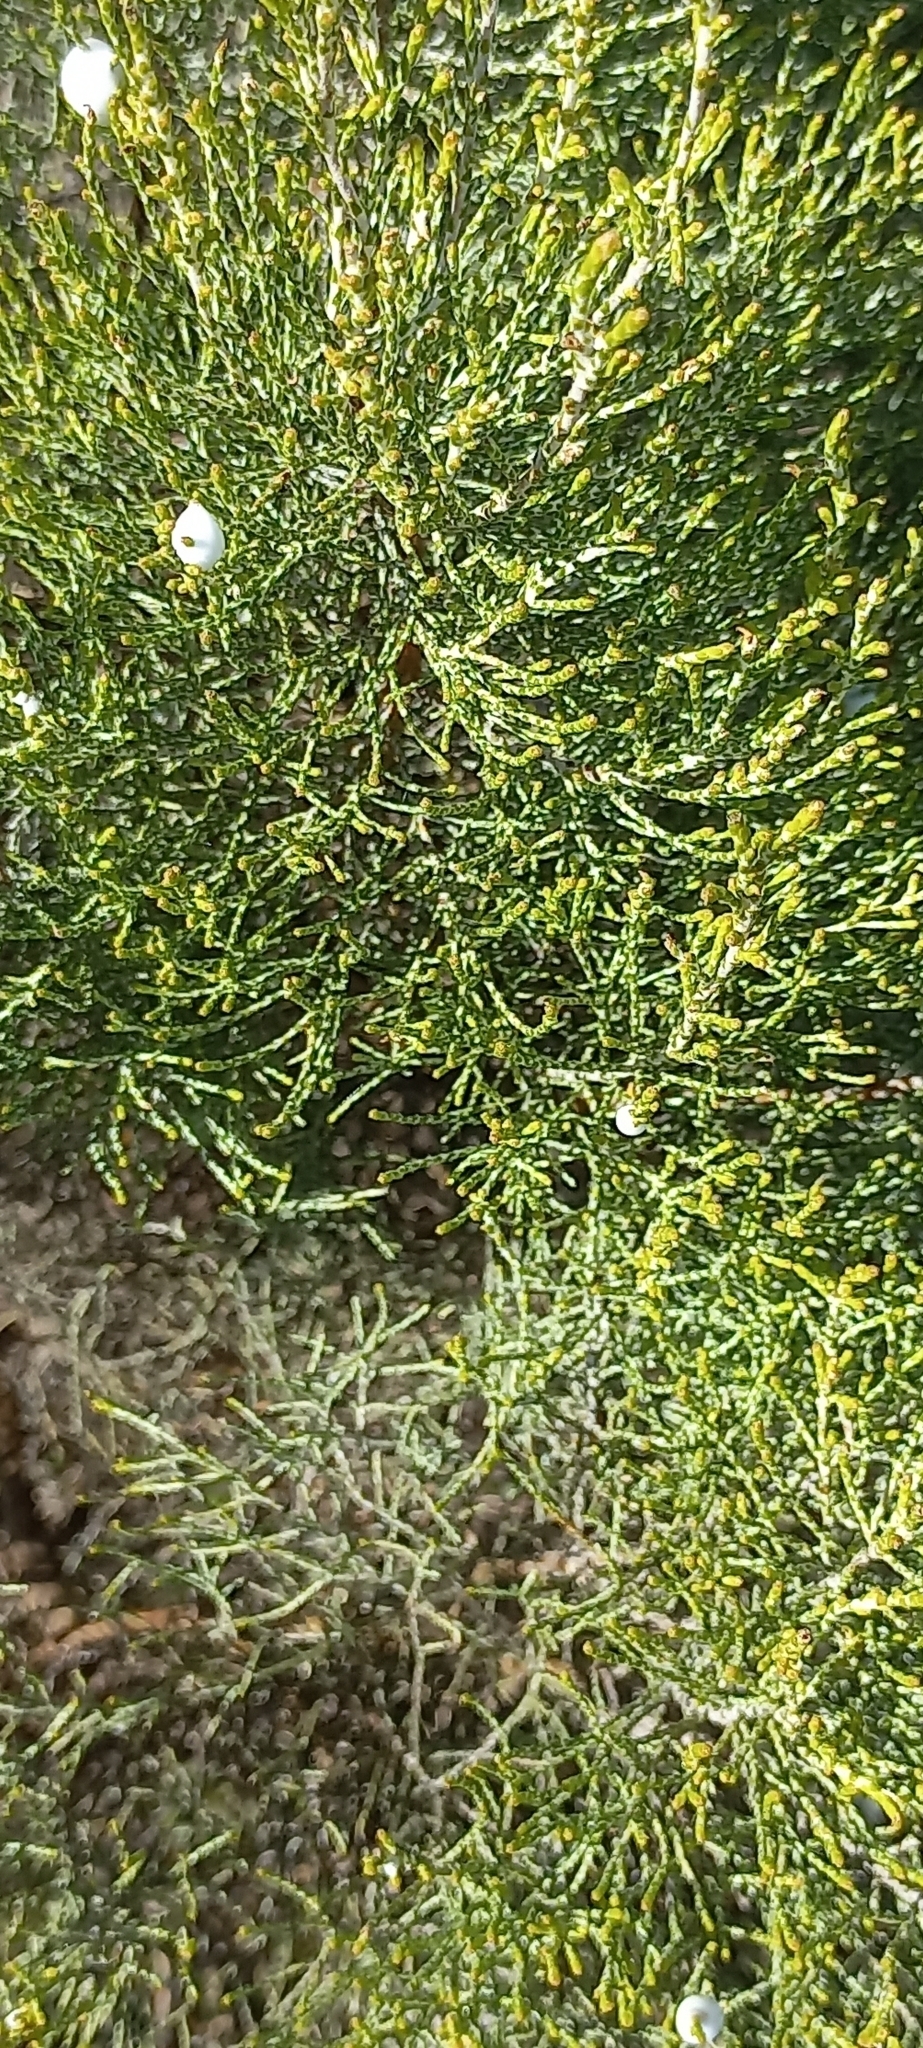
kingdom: Animalia
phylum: Arthropoda
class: Insecta
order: Hemiptera
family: Aphrophoridae
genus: Tremapterus
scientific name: Tremapterus
